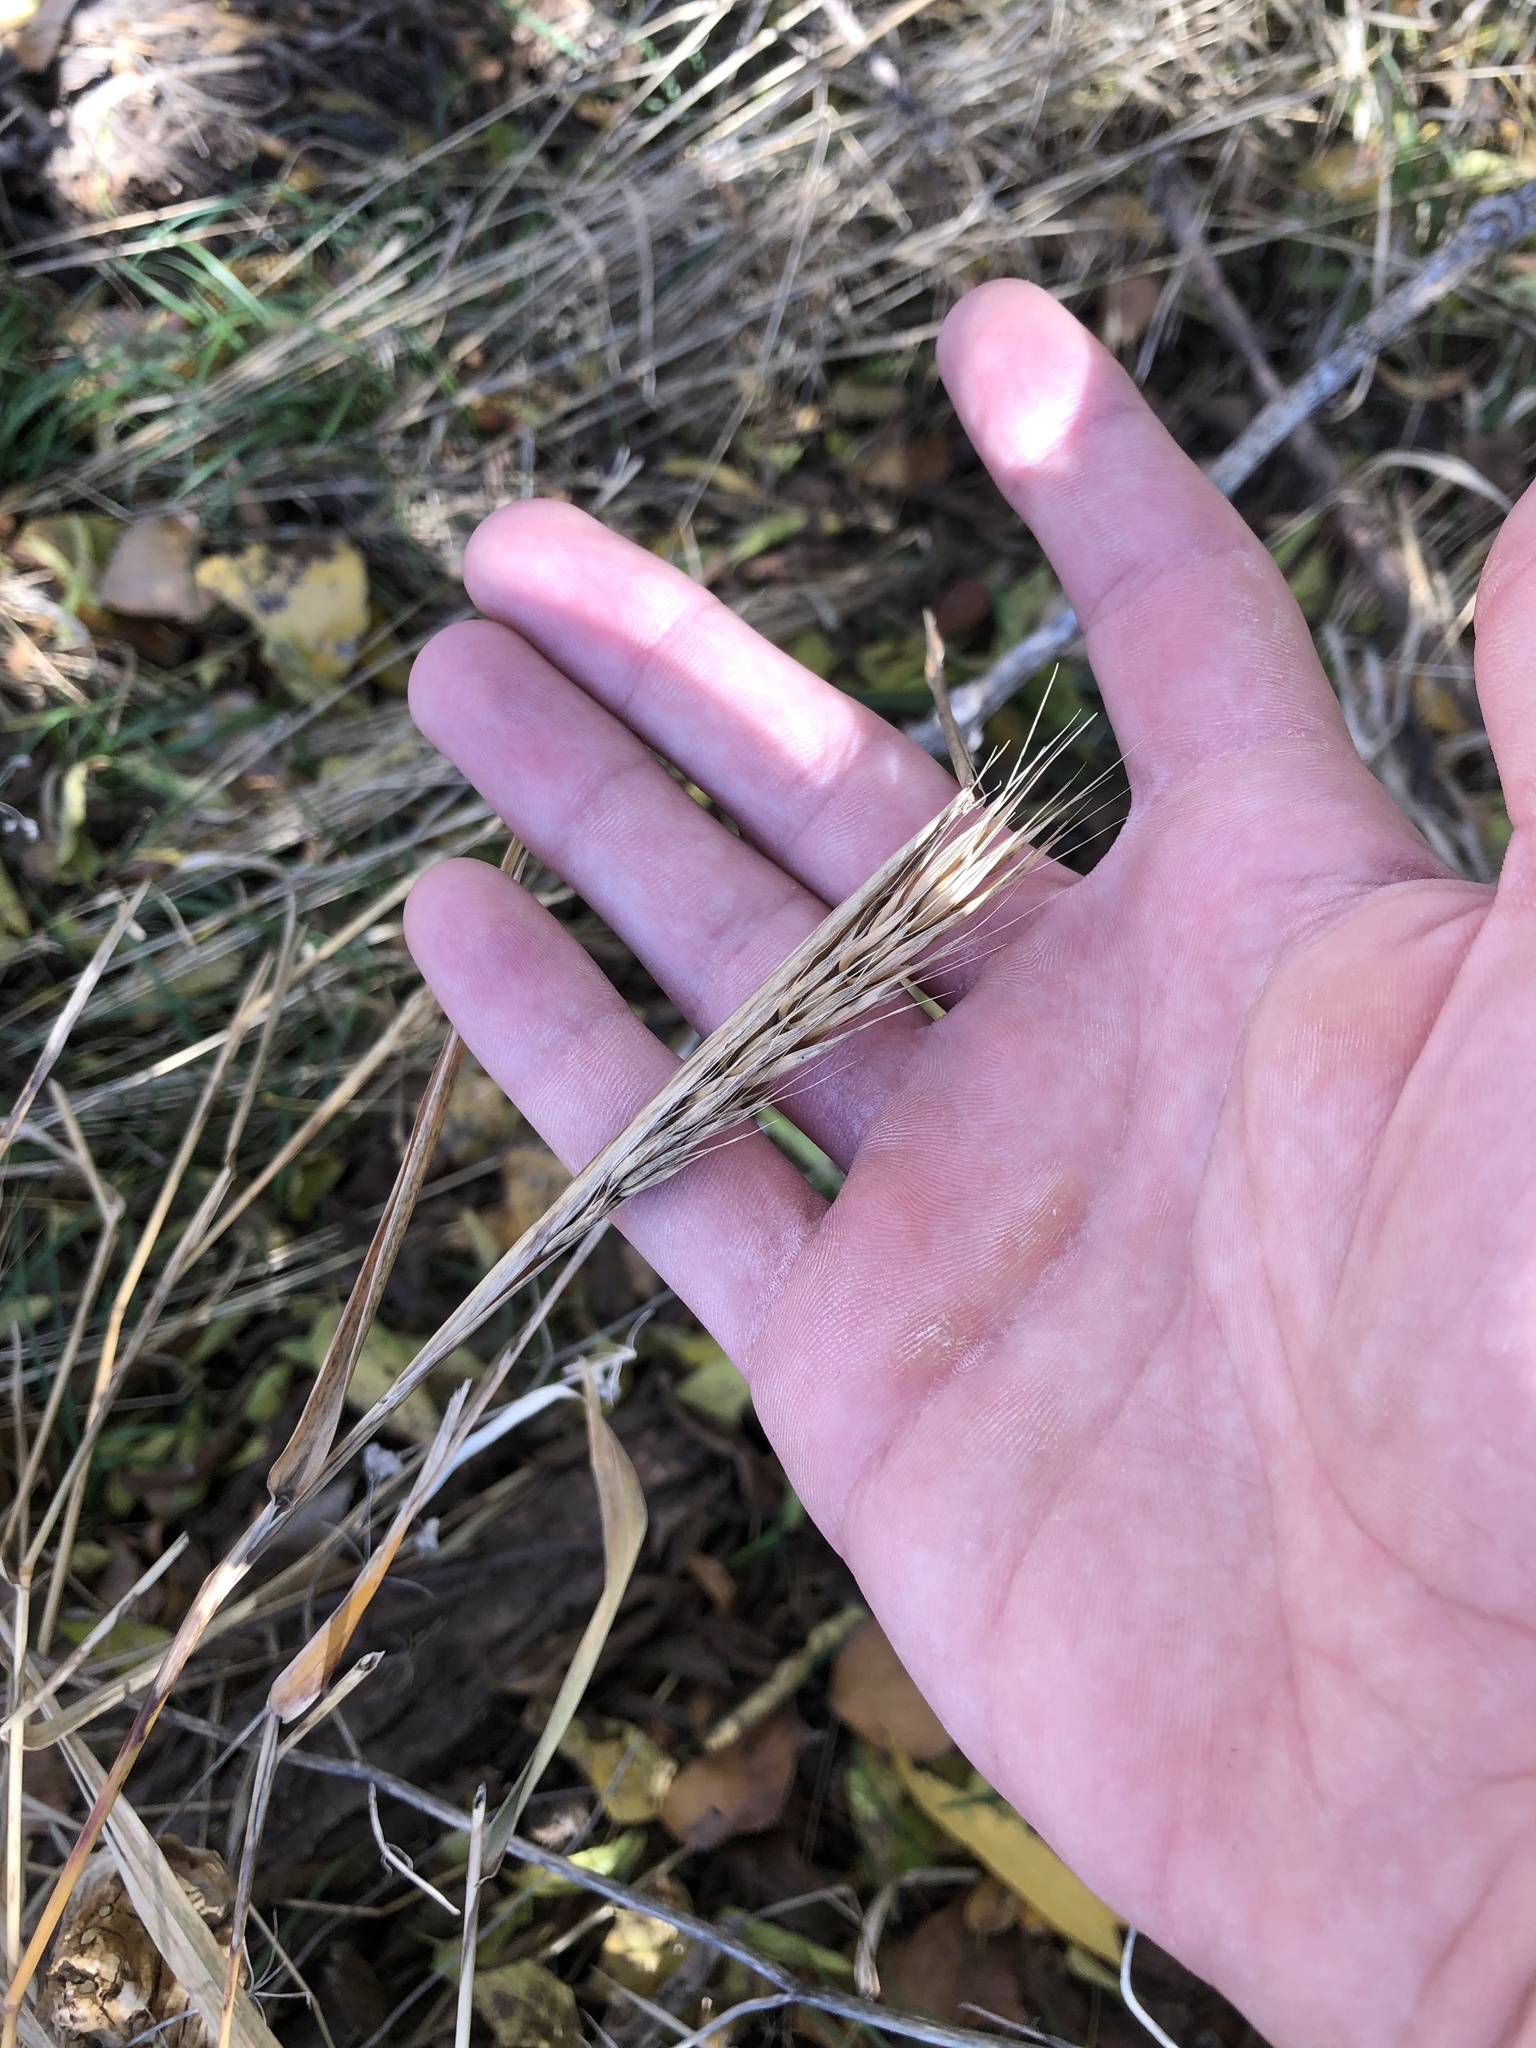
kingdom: Plantae
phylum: Tracheophyta
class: Liliopsida
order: Poales
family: Poaceae
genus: Elymus
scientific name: Elymus virginicus
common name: Common eastern wildrye
